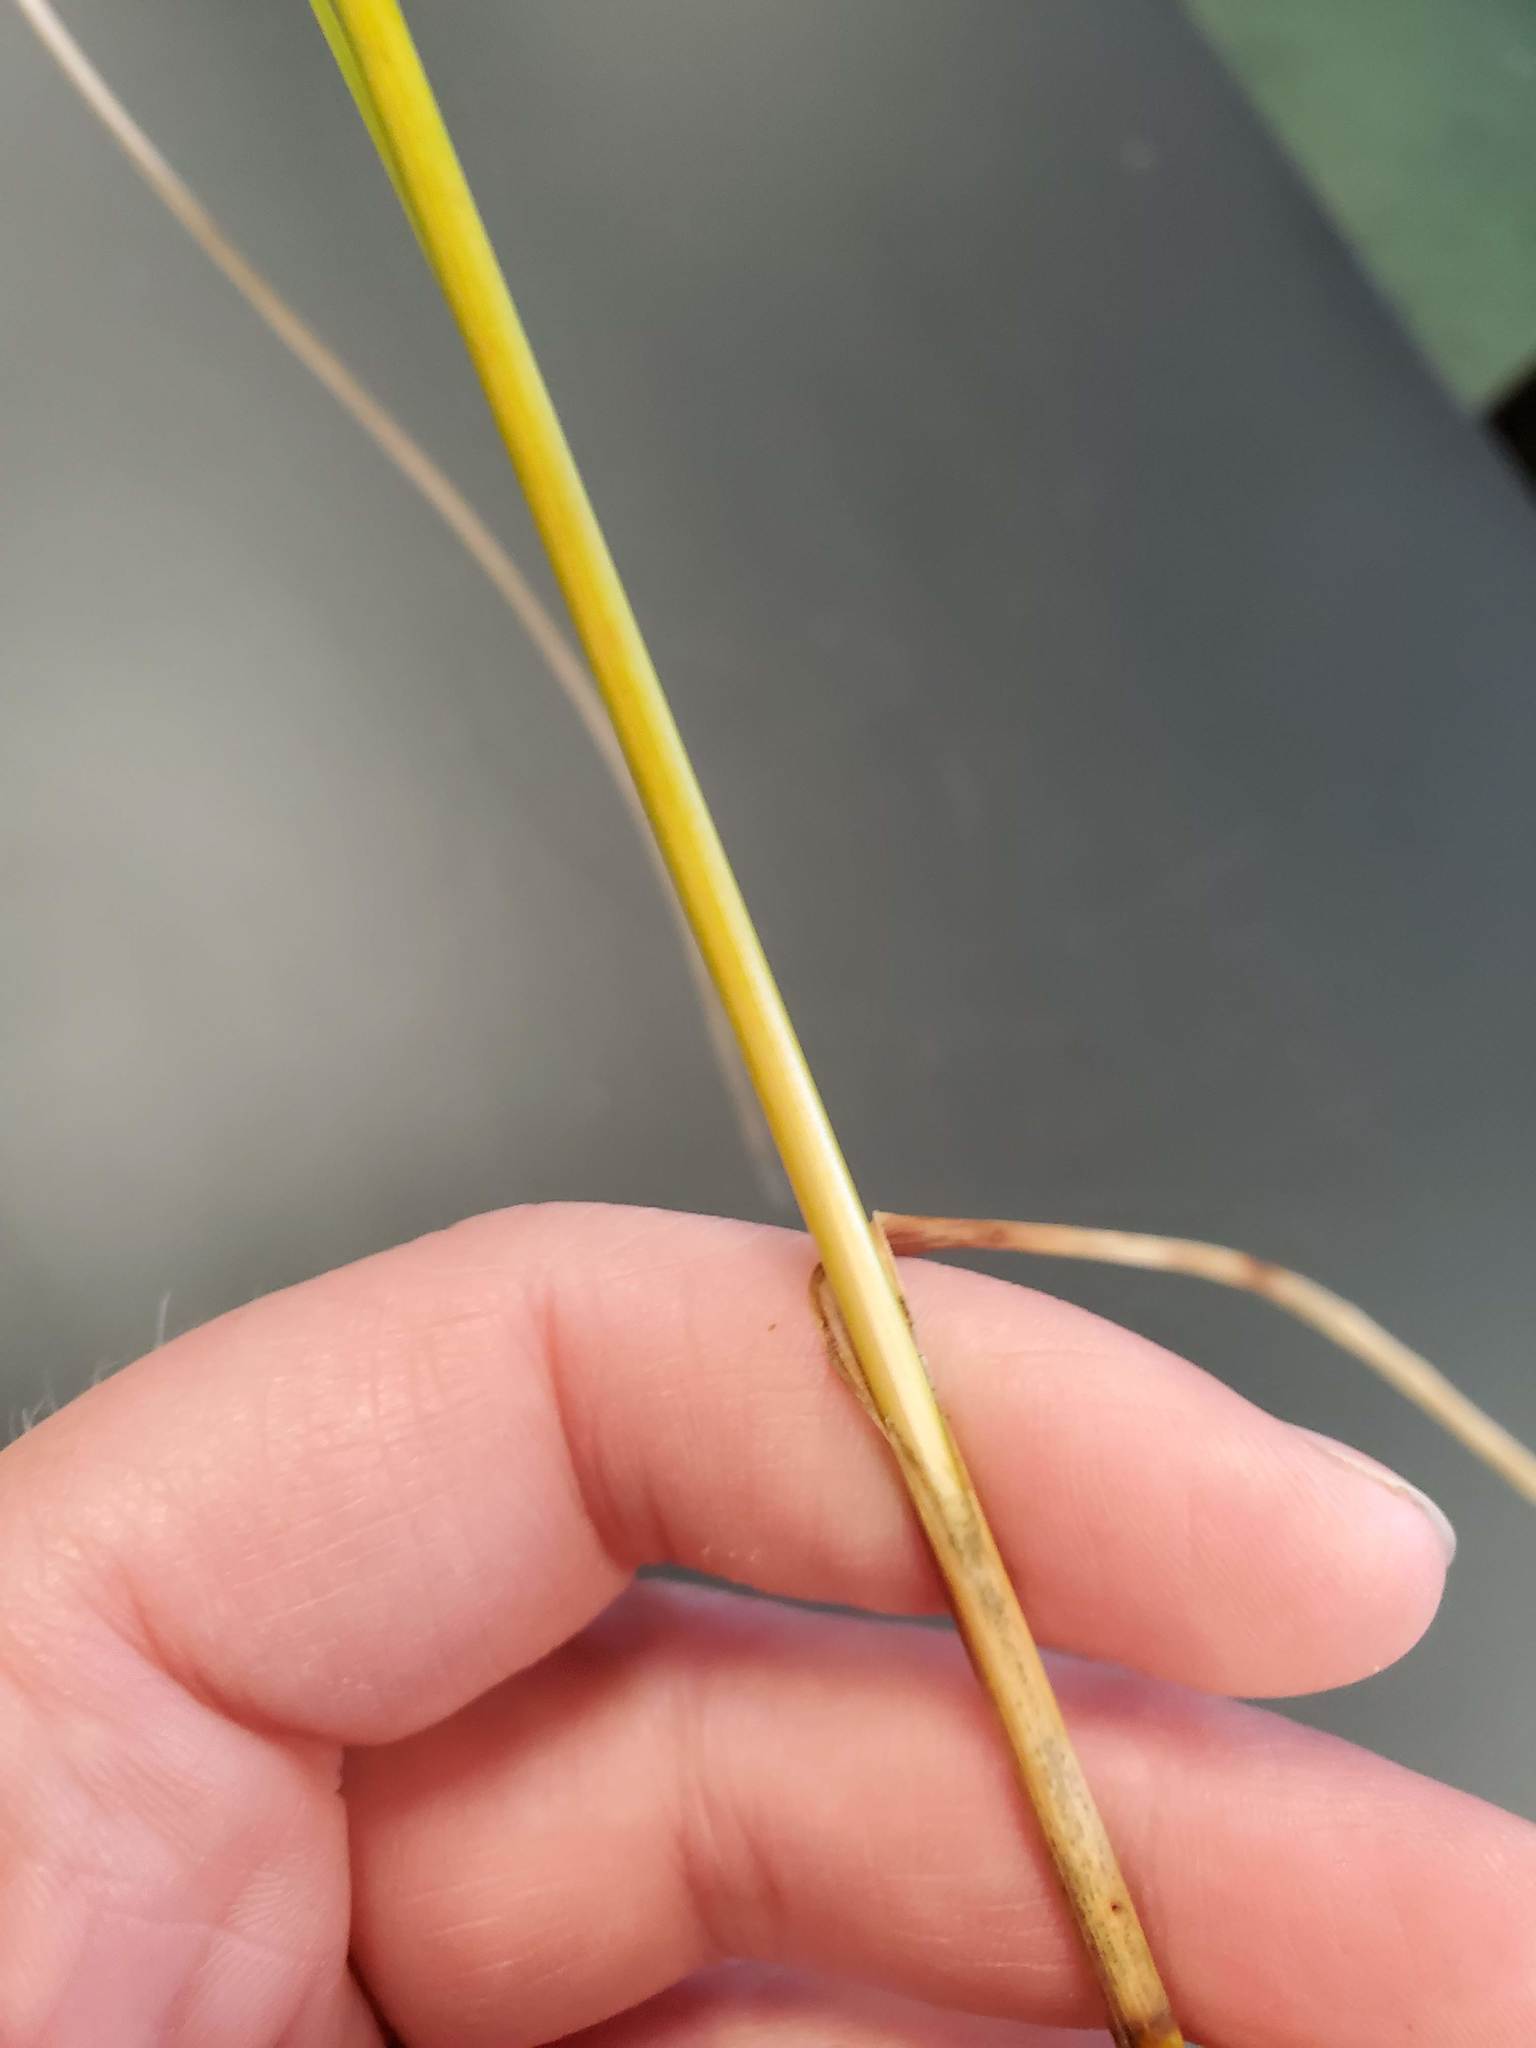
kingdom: Plantae
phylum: Tracheophyta
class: Liliopsida
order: Poales
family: Cyperaceae
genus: Scirpus
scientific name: Scirpus cyperinus
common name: Black-sheathed bulrush
